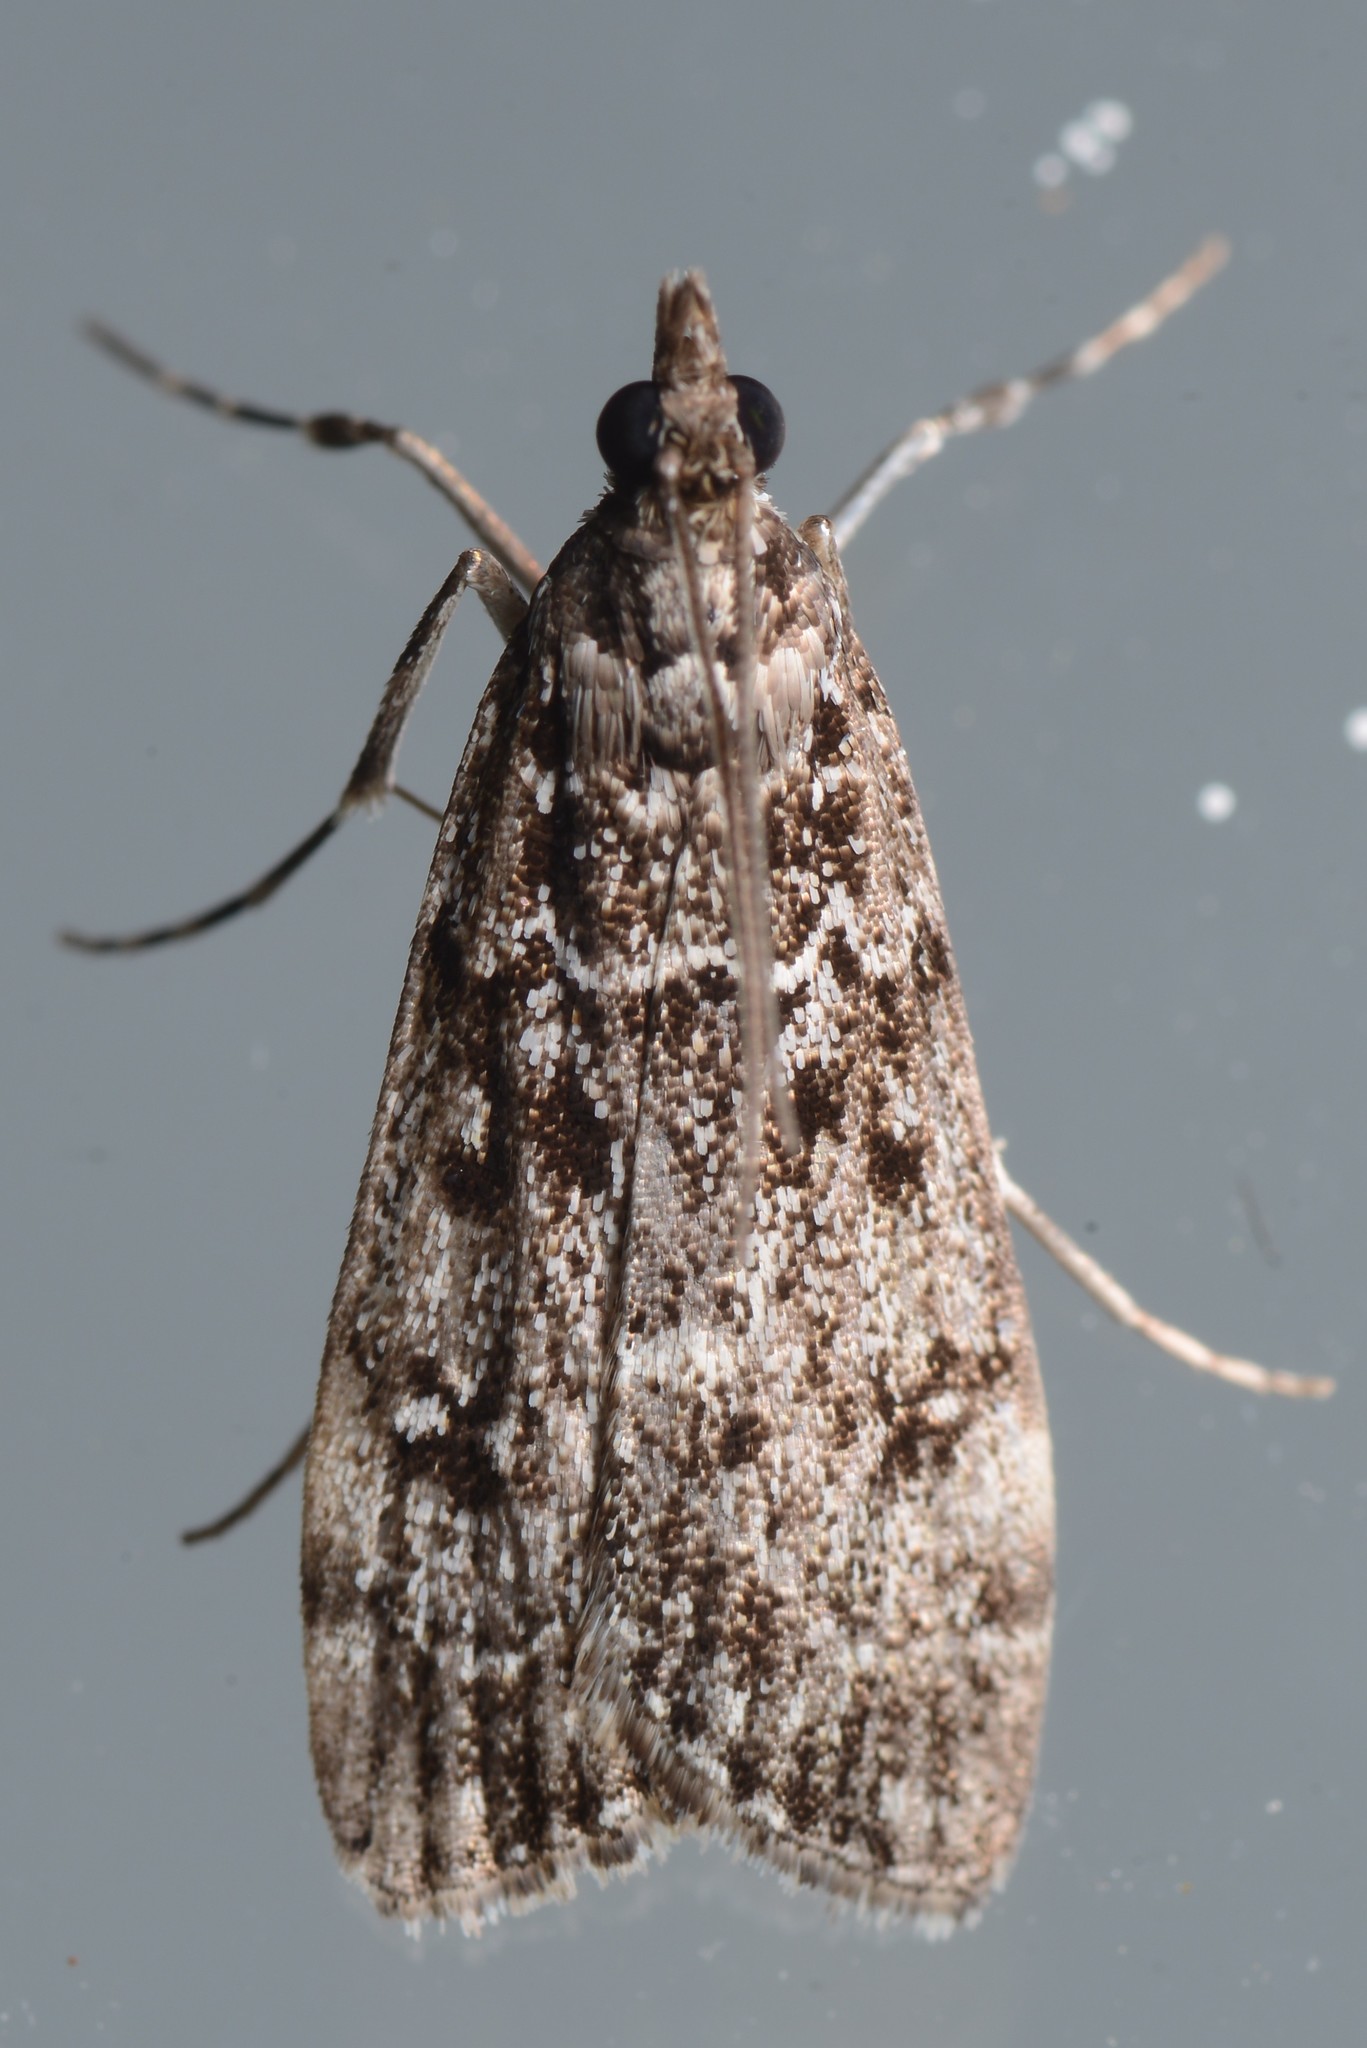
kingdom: Animalia
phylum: Arthropoda
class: Insecta
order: Lepidoptera
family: Crambidae
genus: Eudonia
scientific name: Eudonia philerga
